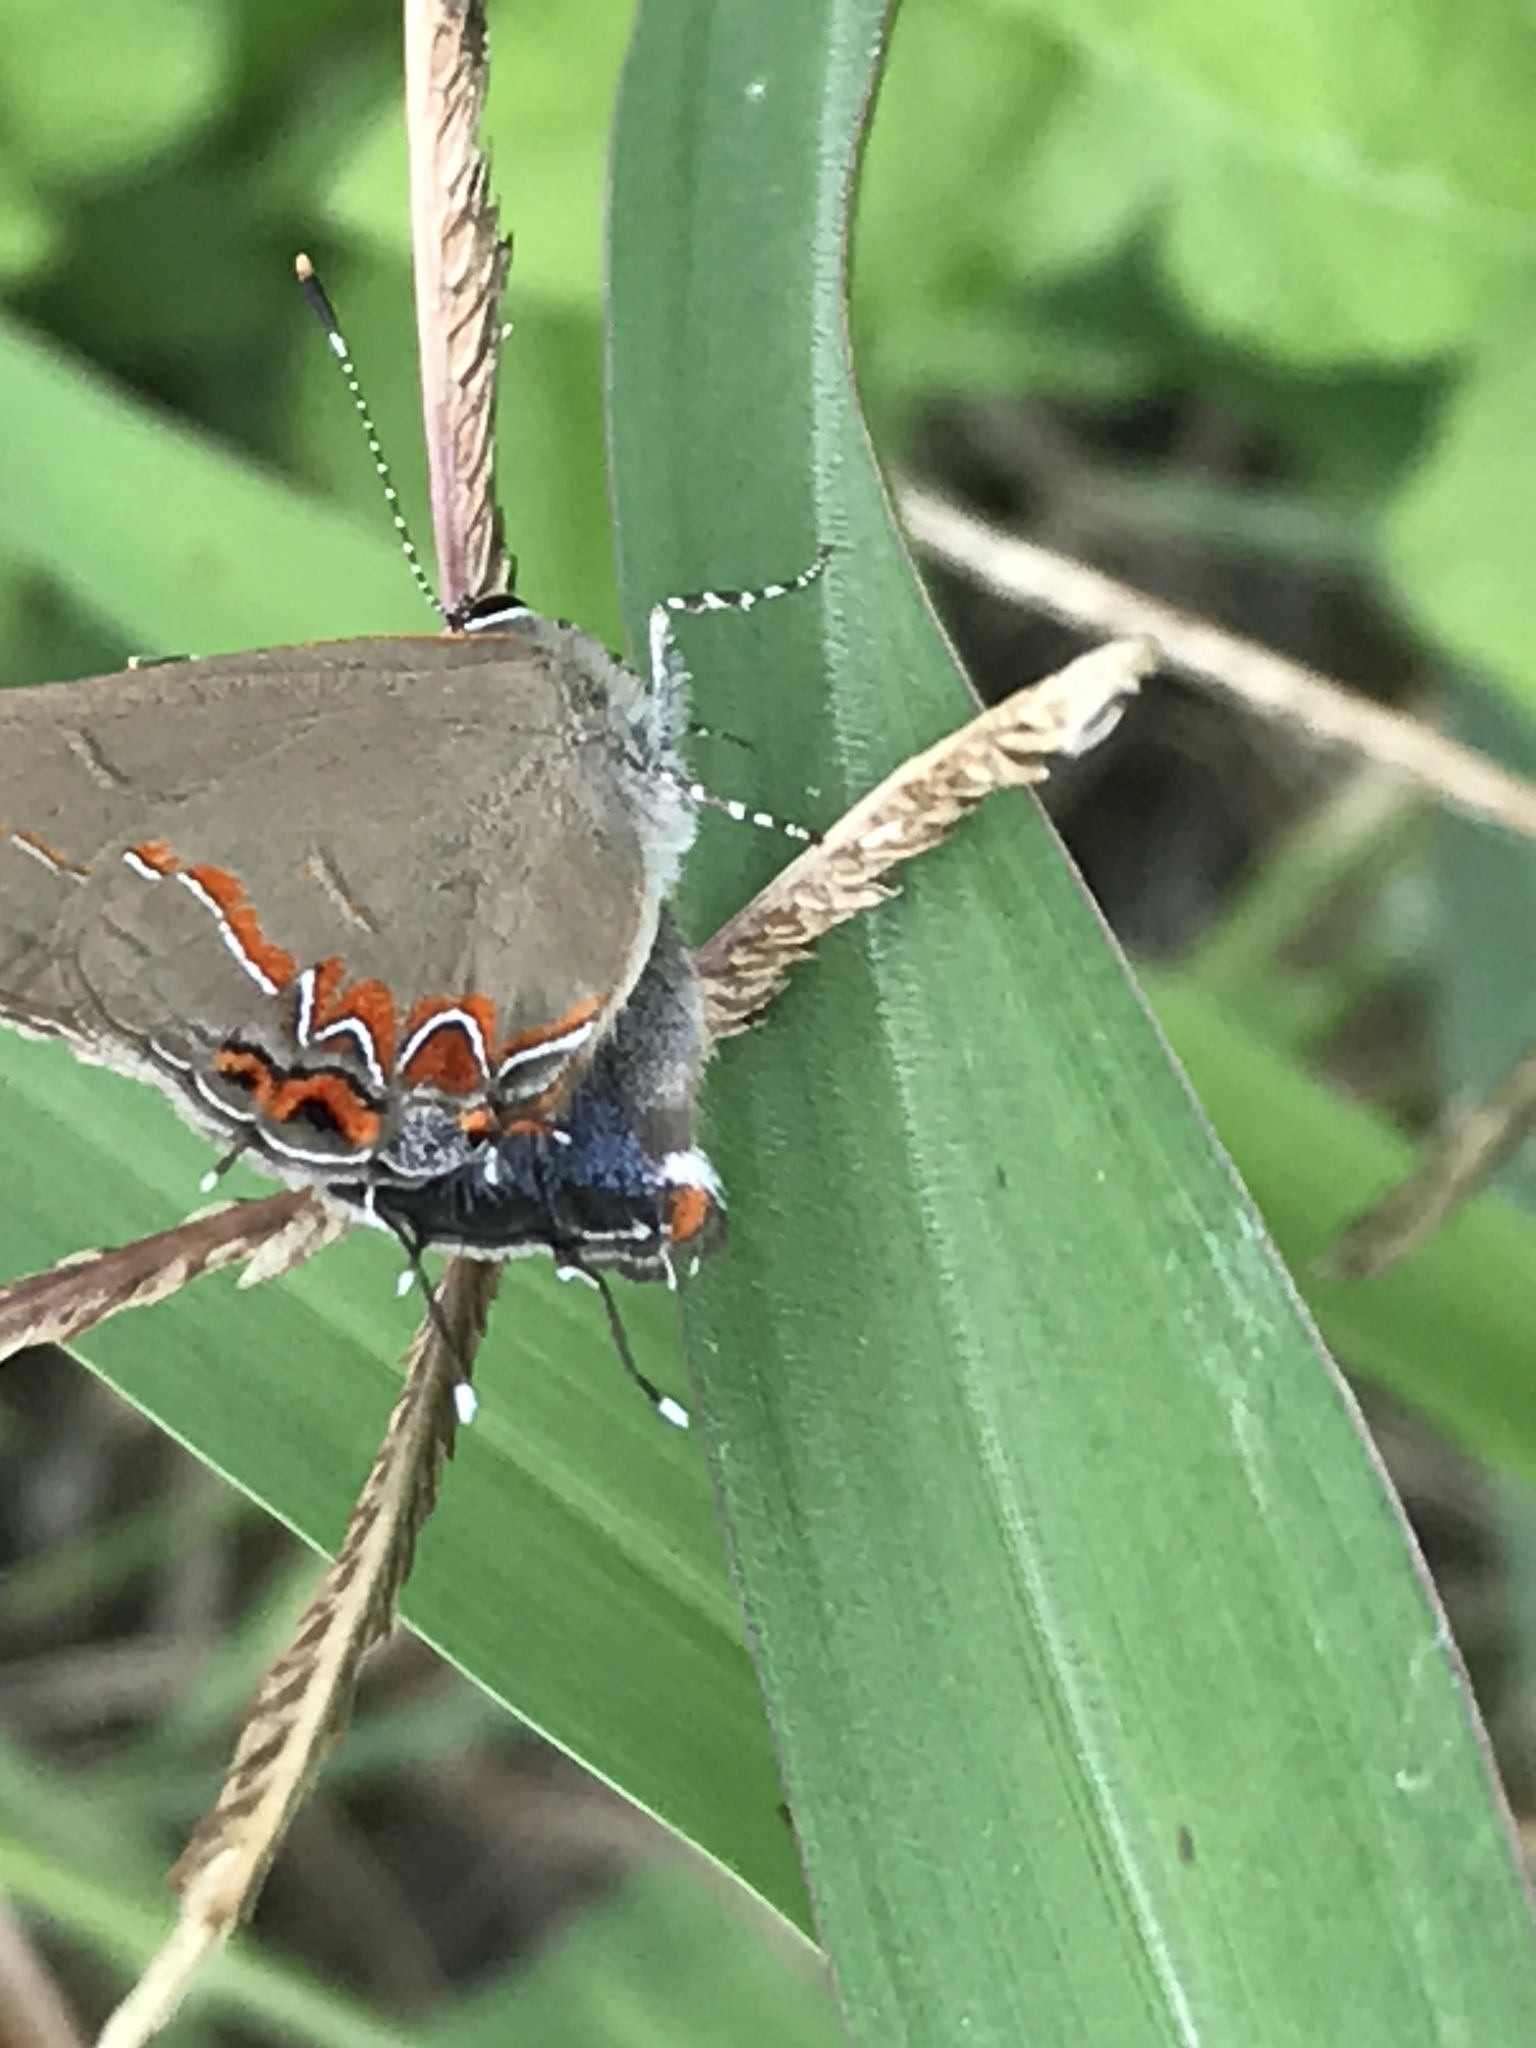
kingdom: Animalia
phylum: Arthropoda
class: Insecta
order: Lepidoptera
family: Lycaenidae
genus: Calycopis
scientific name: Calycopis isobeon
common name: Dusky-blue groundstreak
